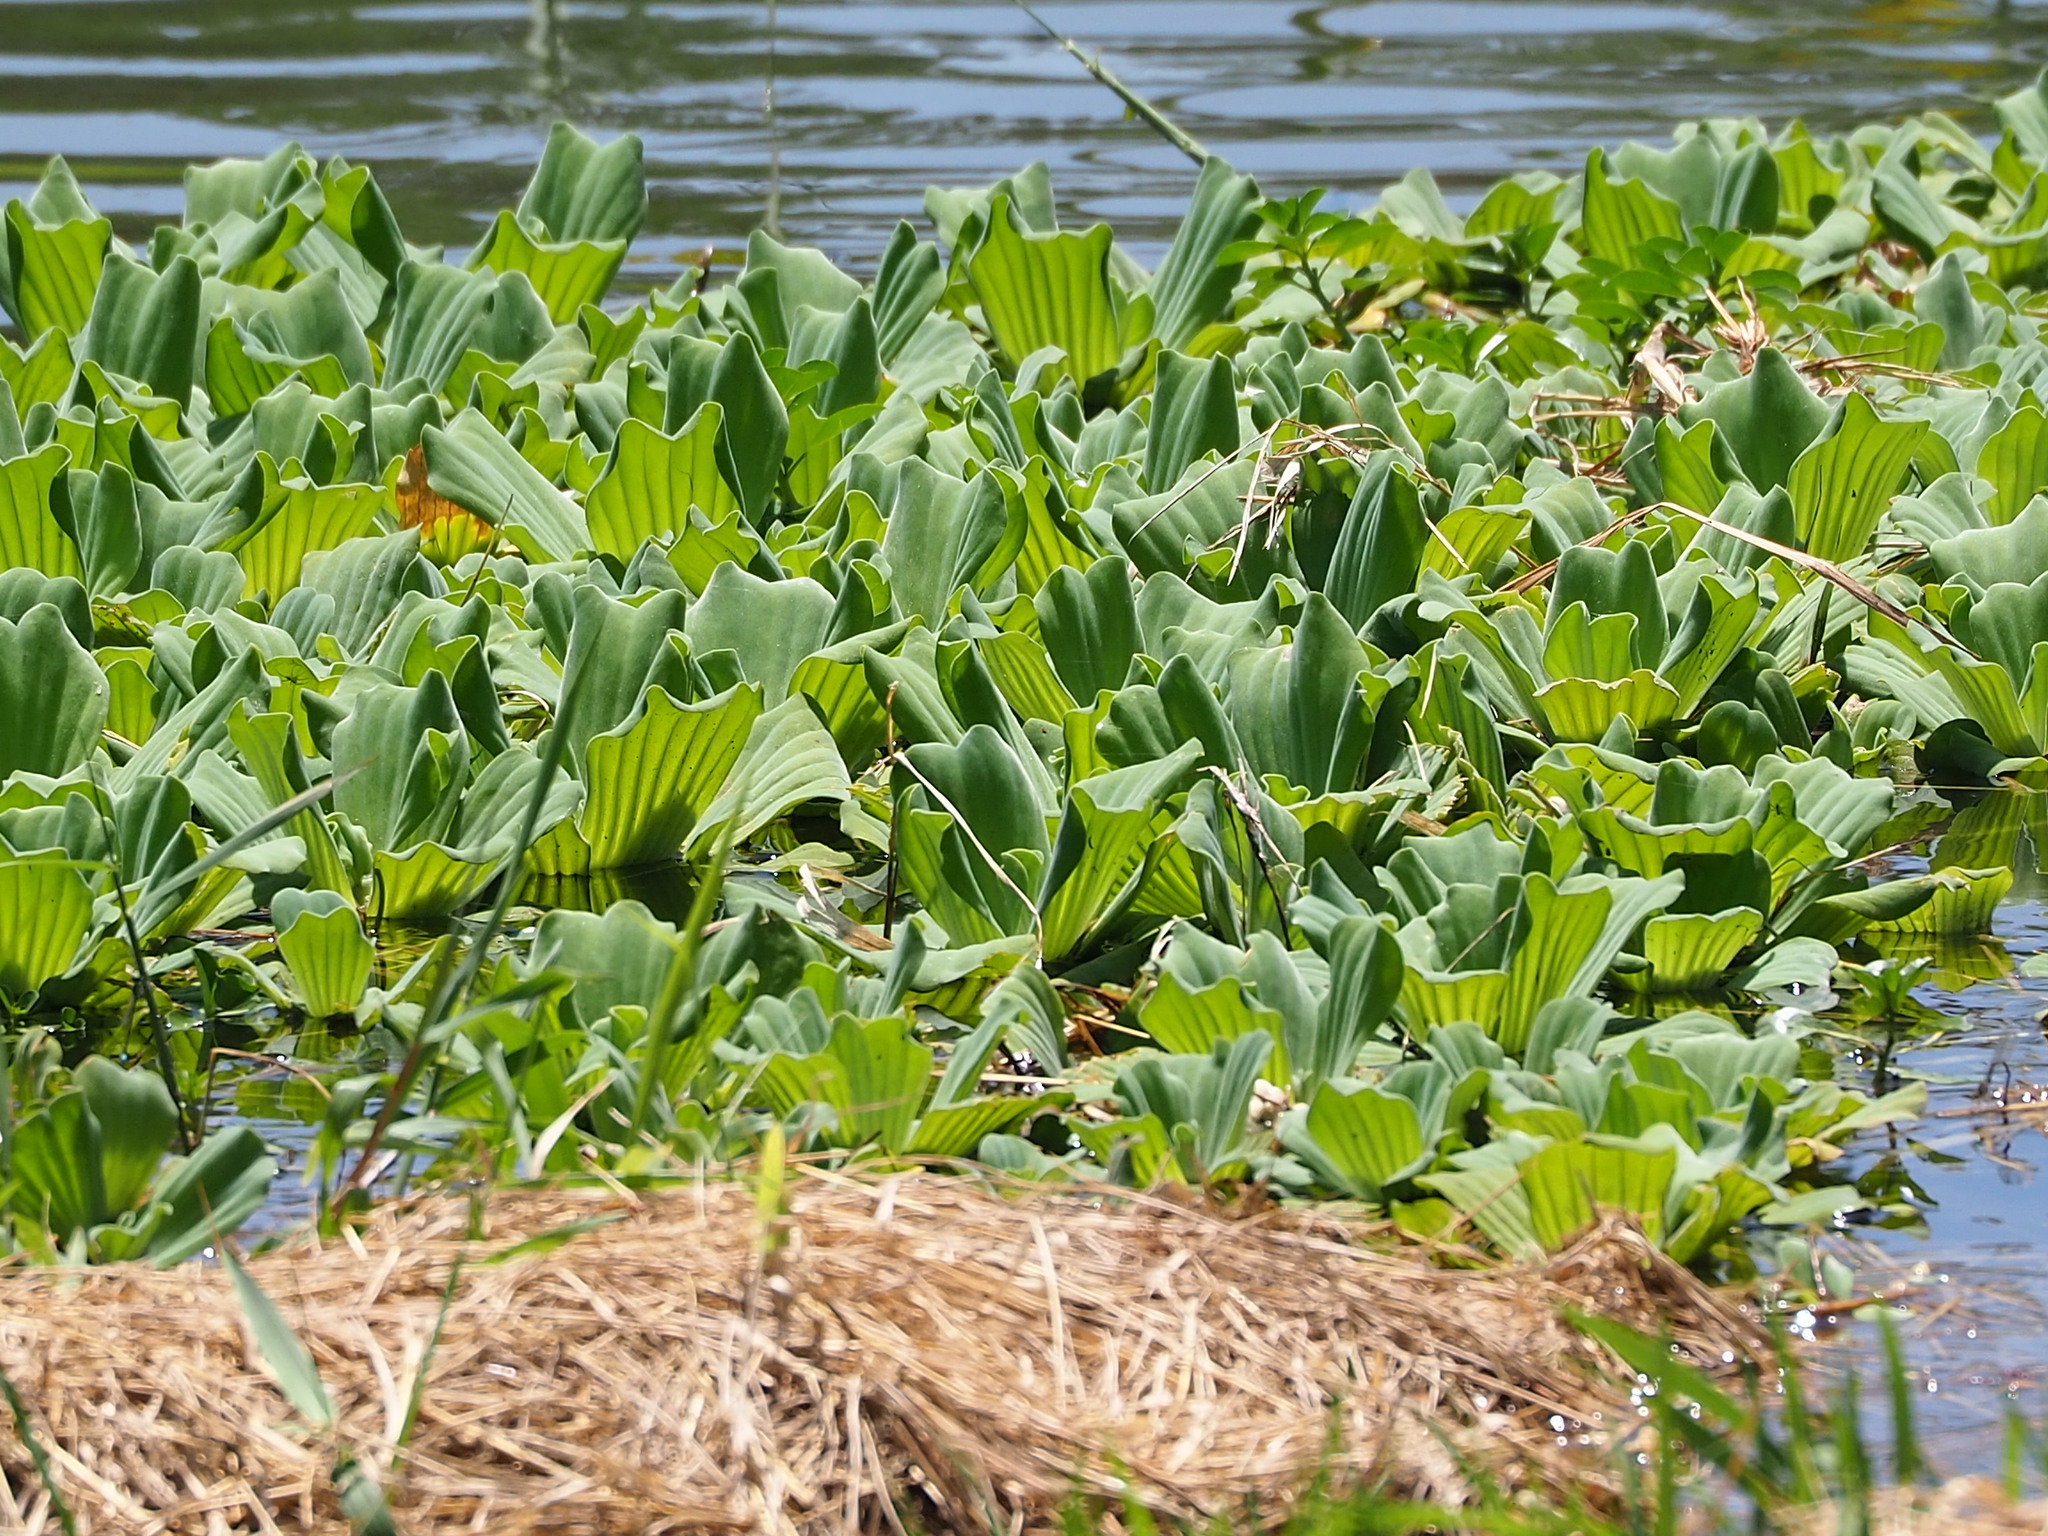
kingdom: Plantae
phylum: Tracheophyta
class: Liliopsida
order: Alismatales
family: Araceae
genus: Pistia
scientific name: Pistia stratiotes
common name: Water lettuce
